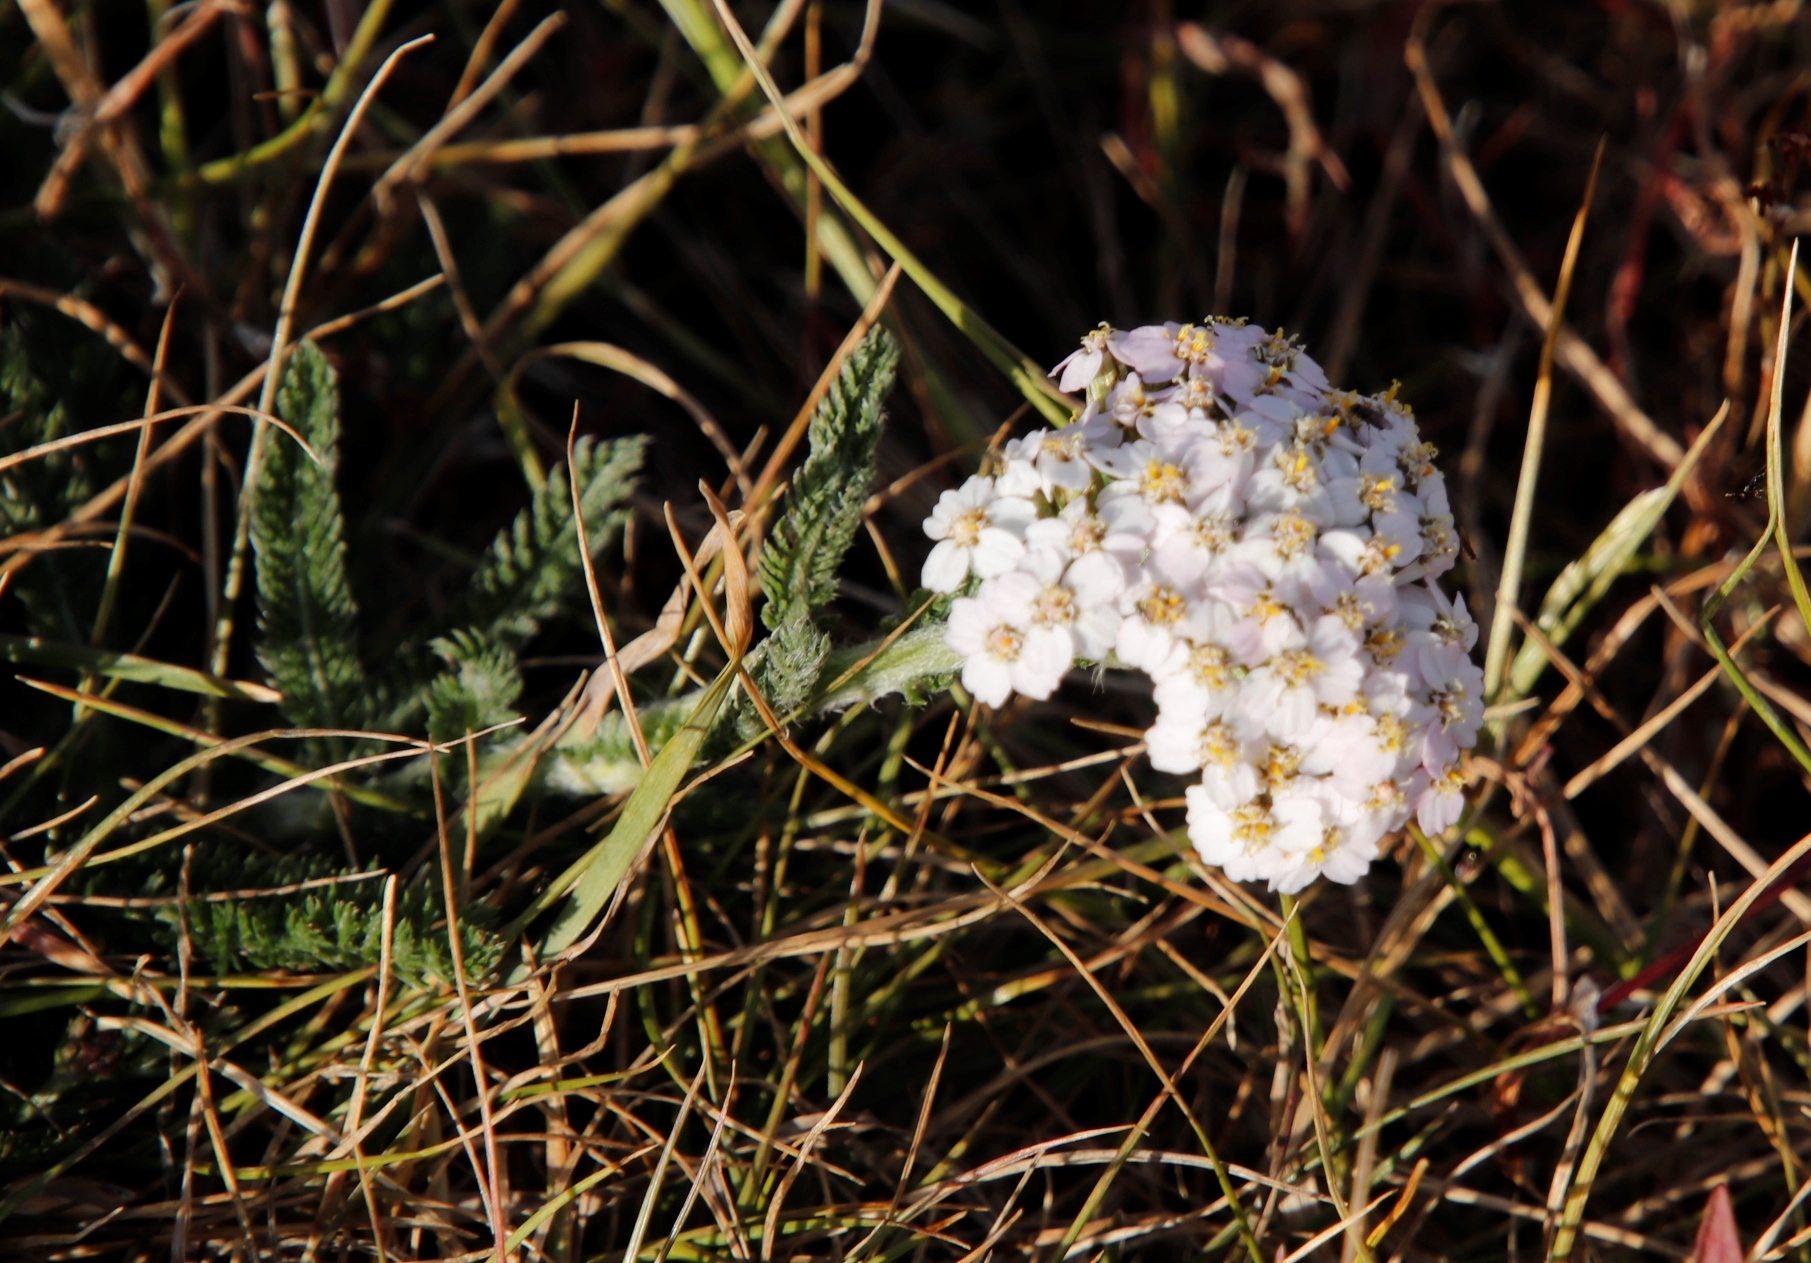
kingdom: Plantae
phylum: Tracheophyta
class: Magnoliopsida
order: Asterales
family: Asteraceae
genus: Achillea
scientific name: Achillea millefolium
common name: Yarrow
